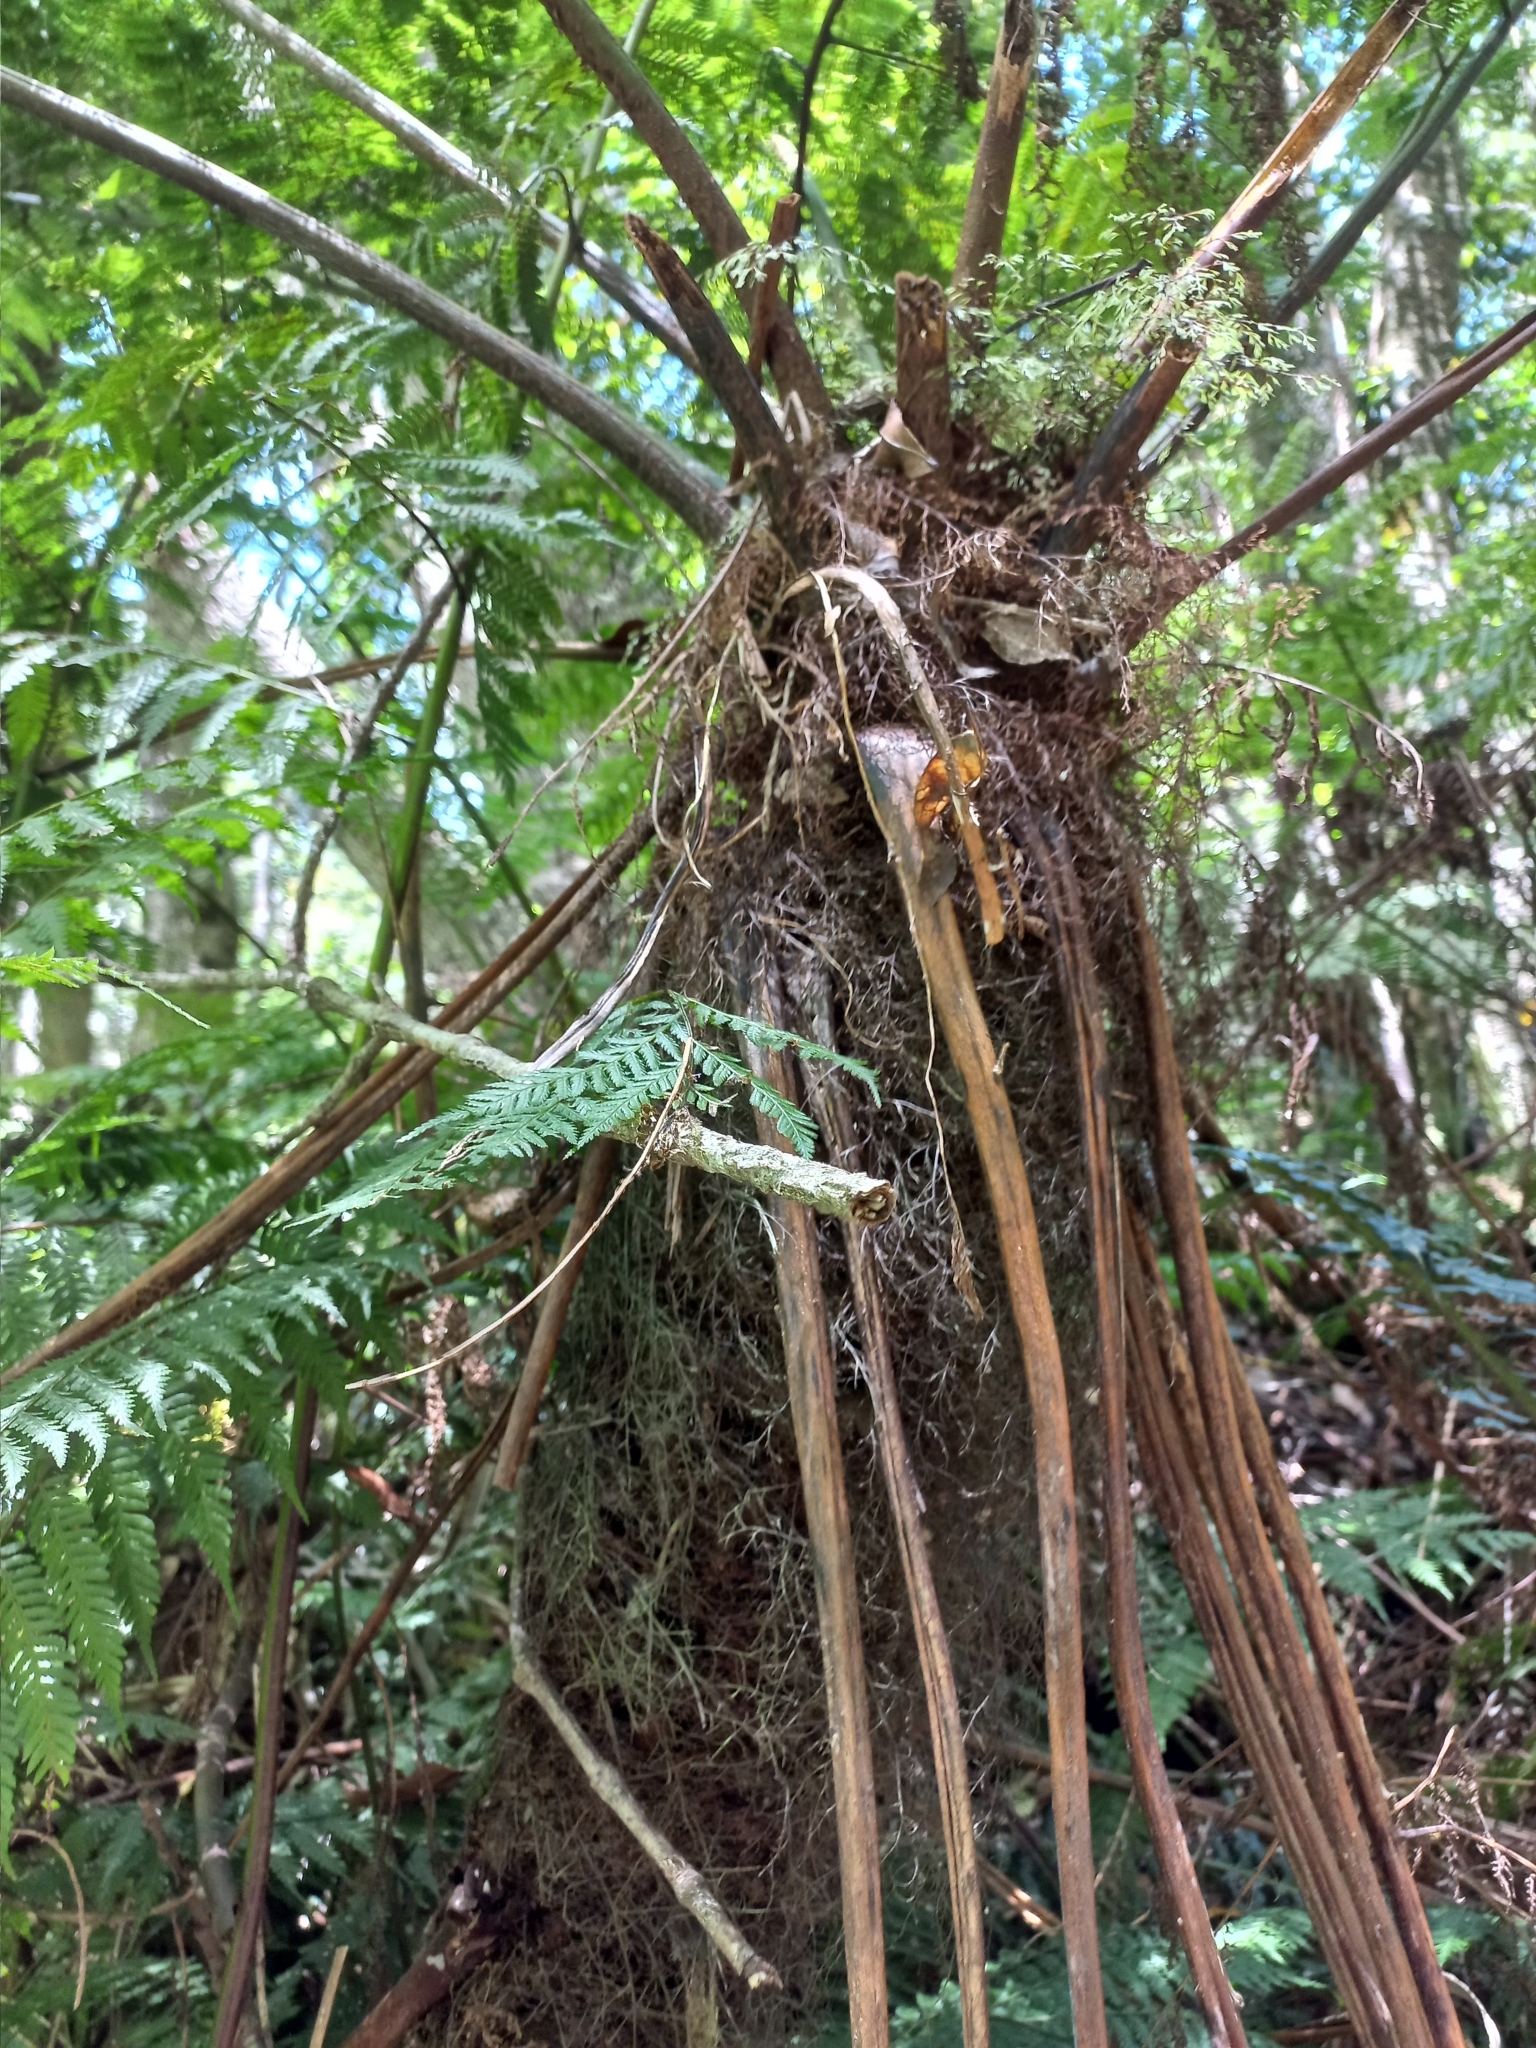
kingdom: Plantae
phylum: Tracheophyta
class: Polypodiopsida
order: Cyatheales
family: Cyatheaceae
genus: Gymnosphaera
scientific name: Gymnosphaera capensis
